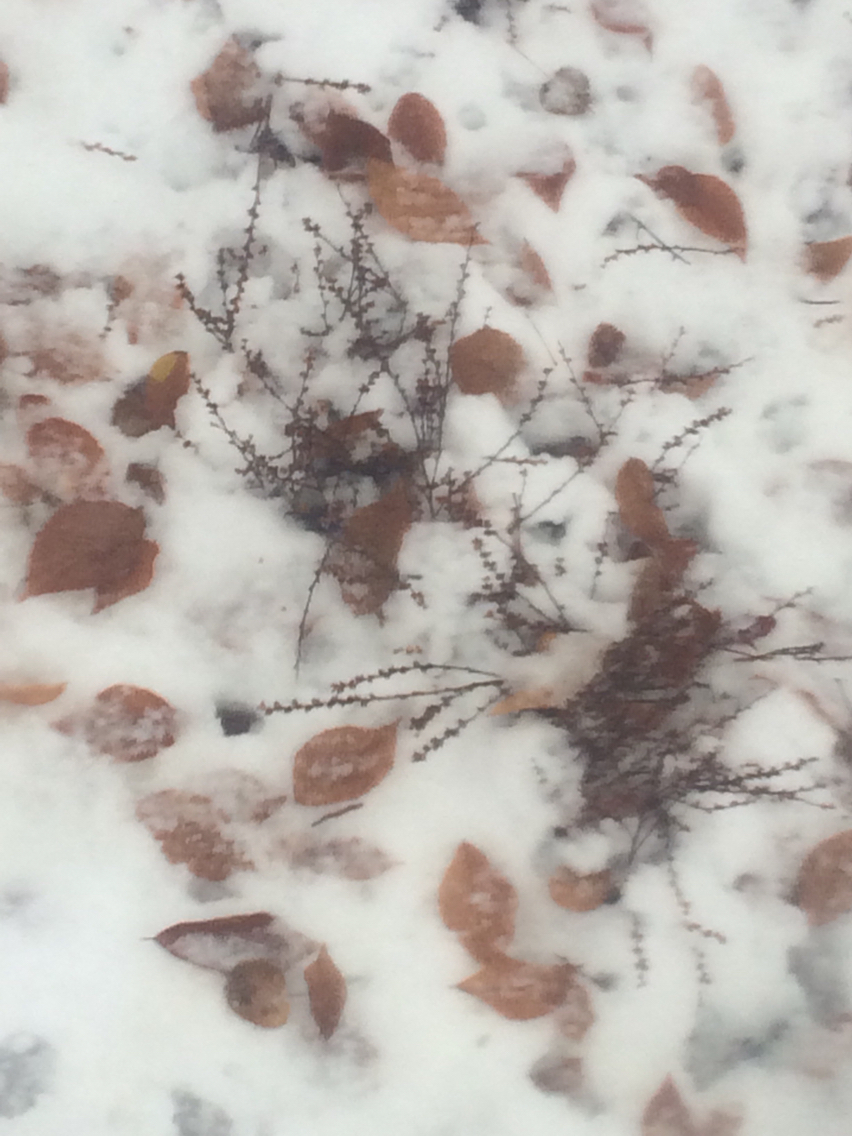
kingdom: Plantae
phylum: Tracheophyta
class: Magnoliopsida
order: Lamiales
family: Orobanchaceae
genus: Epifagus
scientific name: Epifagus virginiana
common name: Beechdrops
